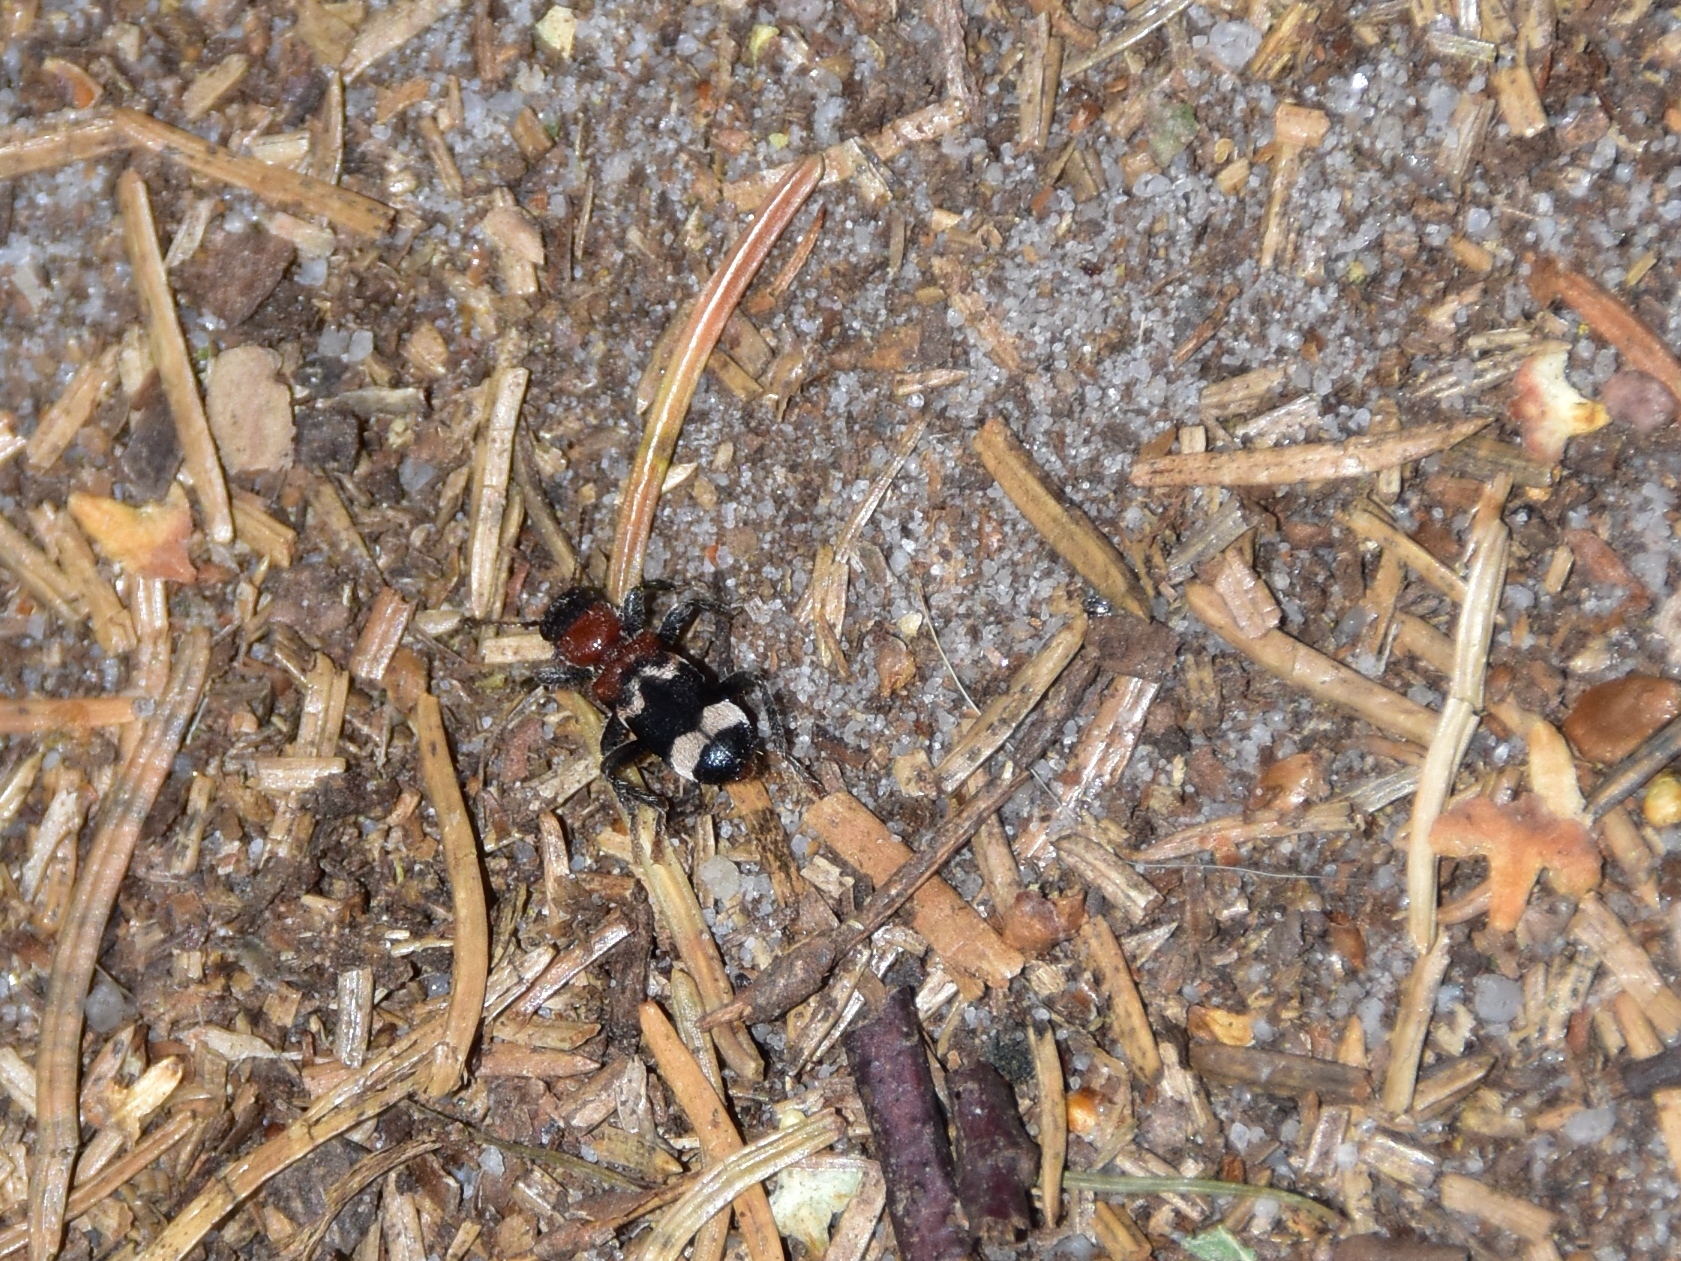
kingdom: Animalia
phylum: Arthropoda
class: Insecta
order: Coleoptera
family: Cleridae
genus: Thanasimus
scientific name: Thanasimus formicarius
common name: Ant beetle
